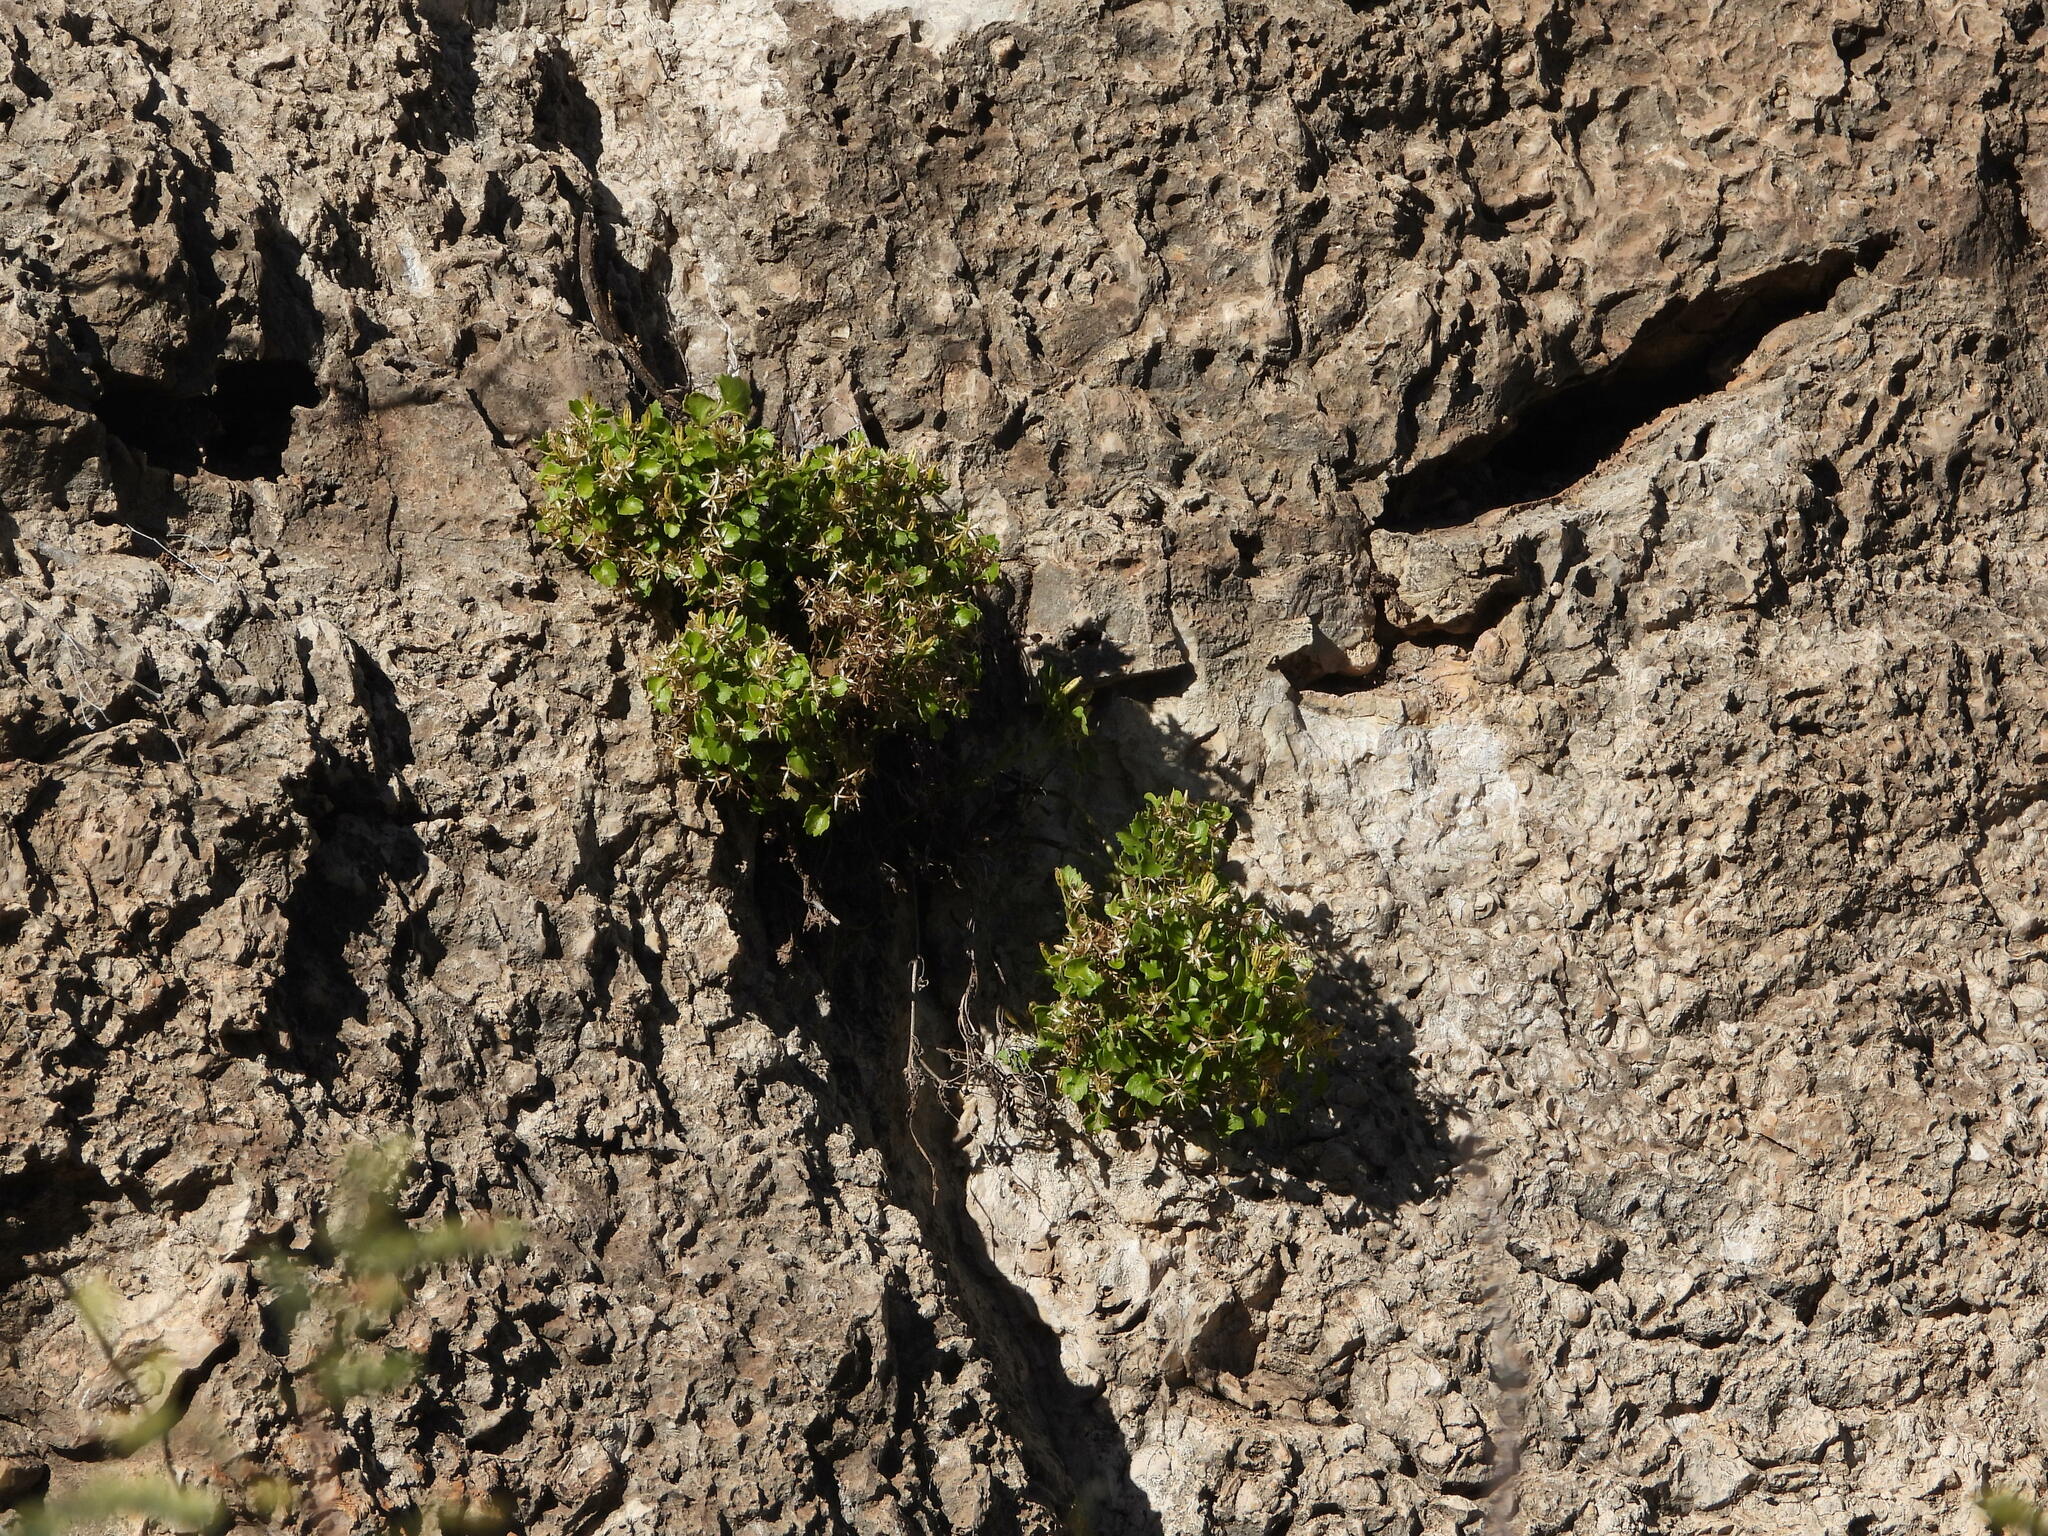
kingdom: Plantae
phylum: Tracheophyta
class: Magnoliopsida
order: Asterales
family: Asteraceae
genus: Laphamia
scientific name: Laphamia quinqueflora
